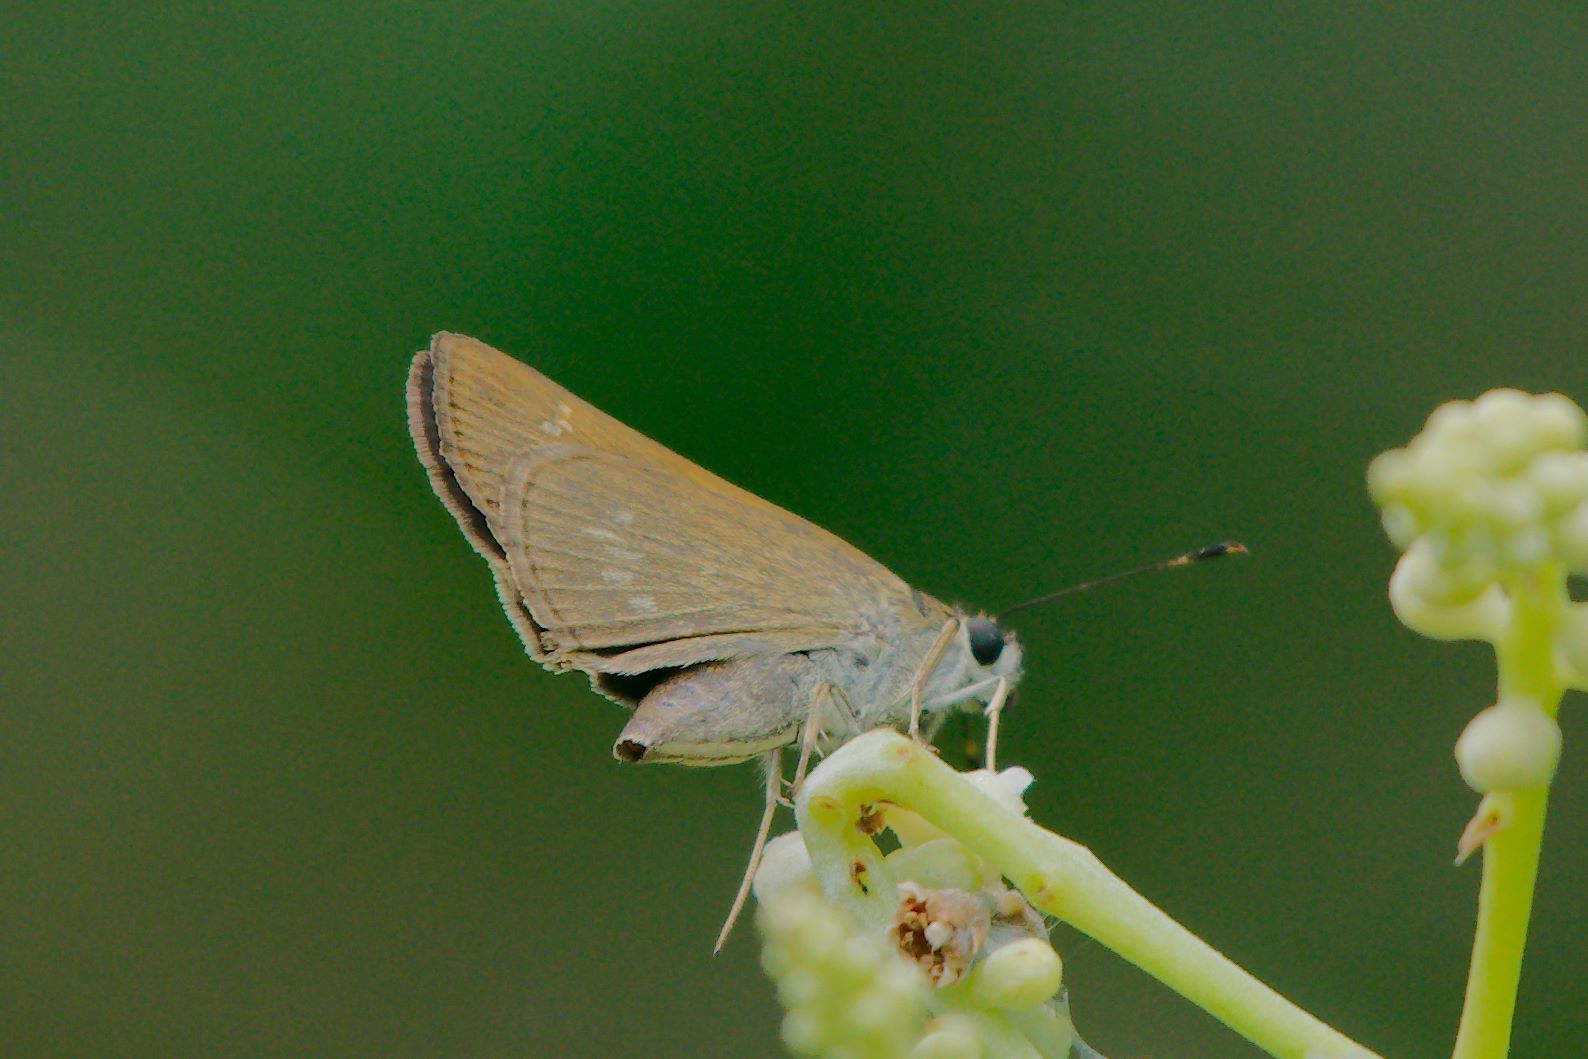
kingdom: Animalia
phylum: Arthropoda
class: Insecta
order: Lepidoptera
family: Hesperiidae
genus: Cymaenes
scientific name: Cymaenes tripunctus
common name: Dingy dotted skipper
